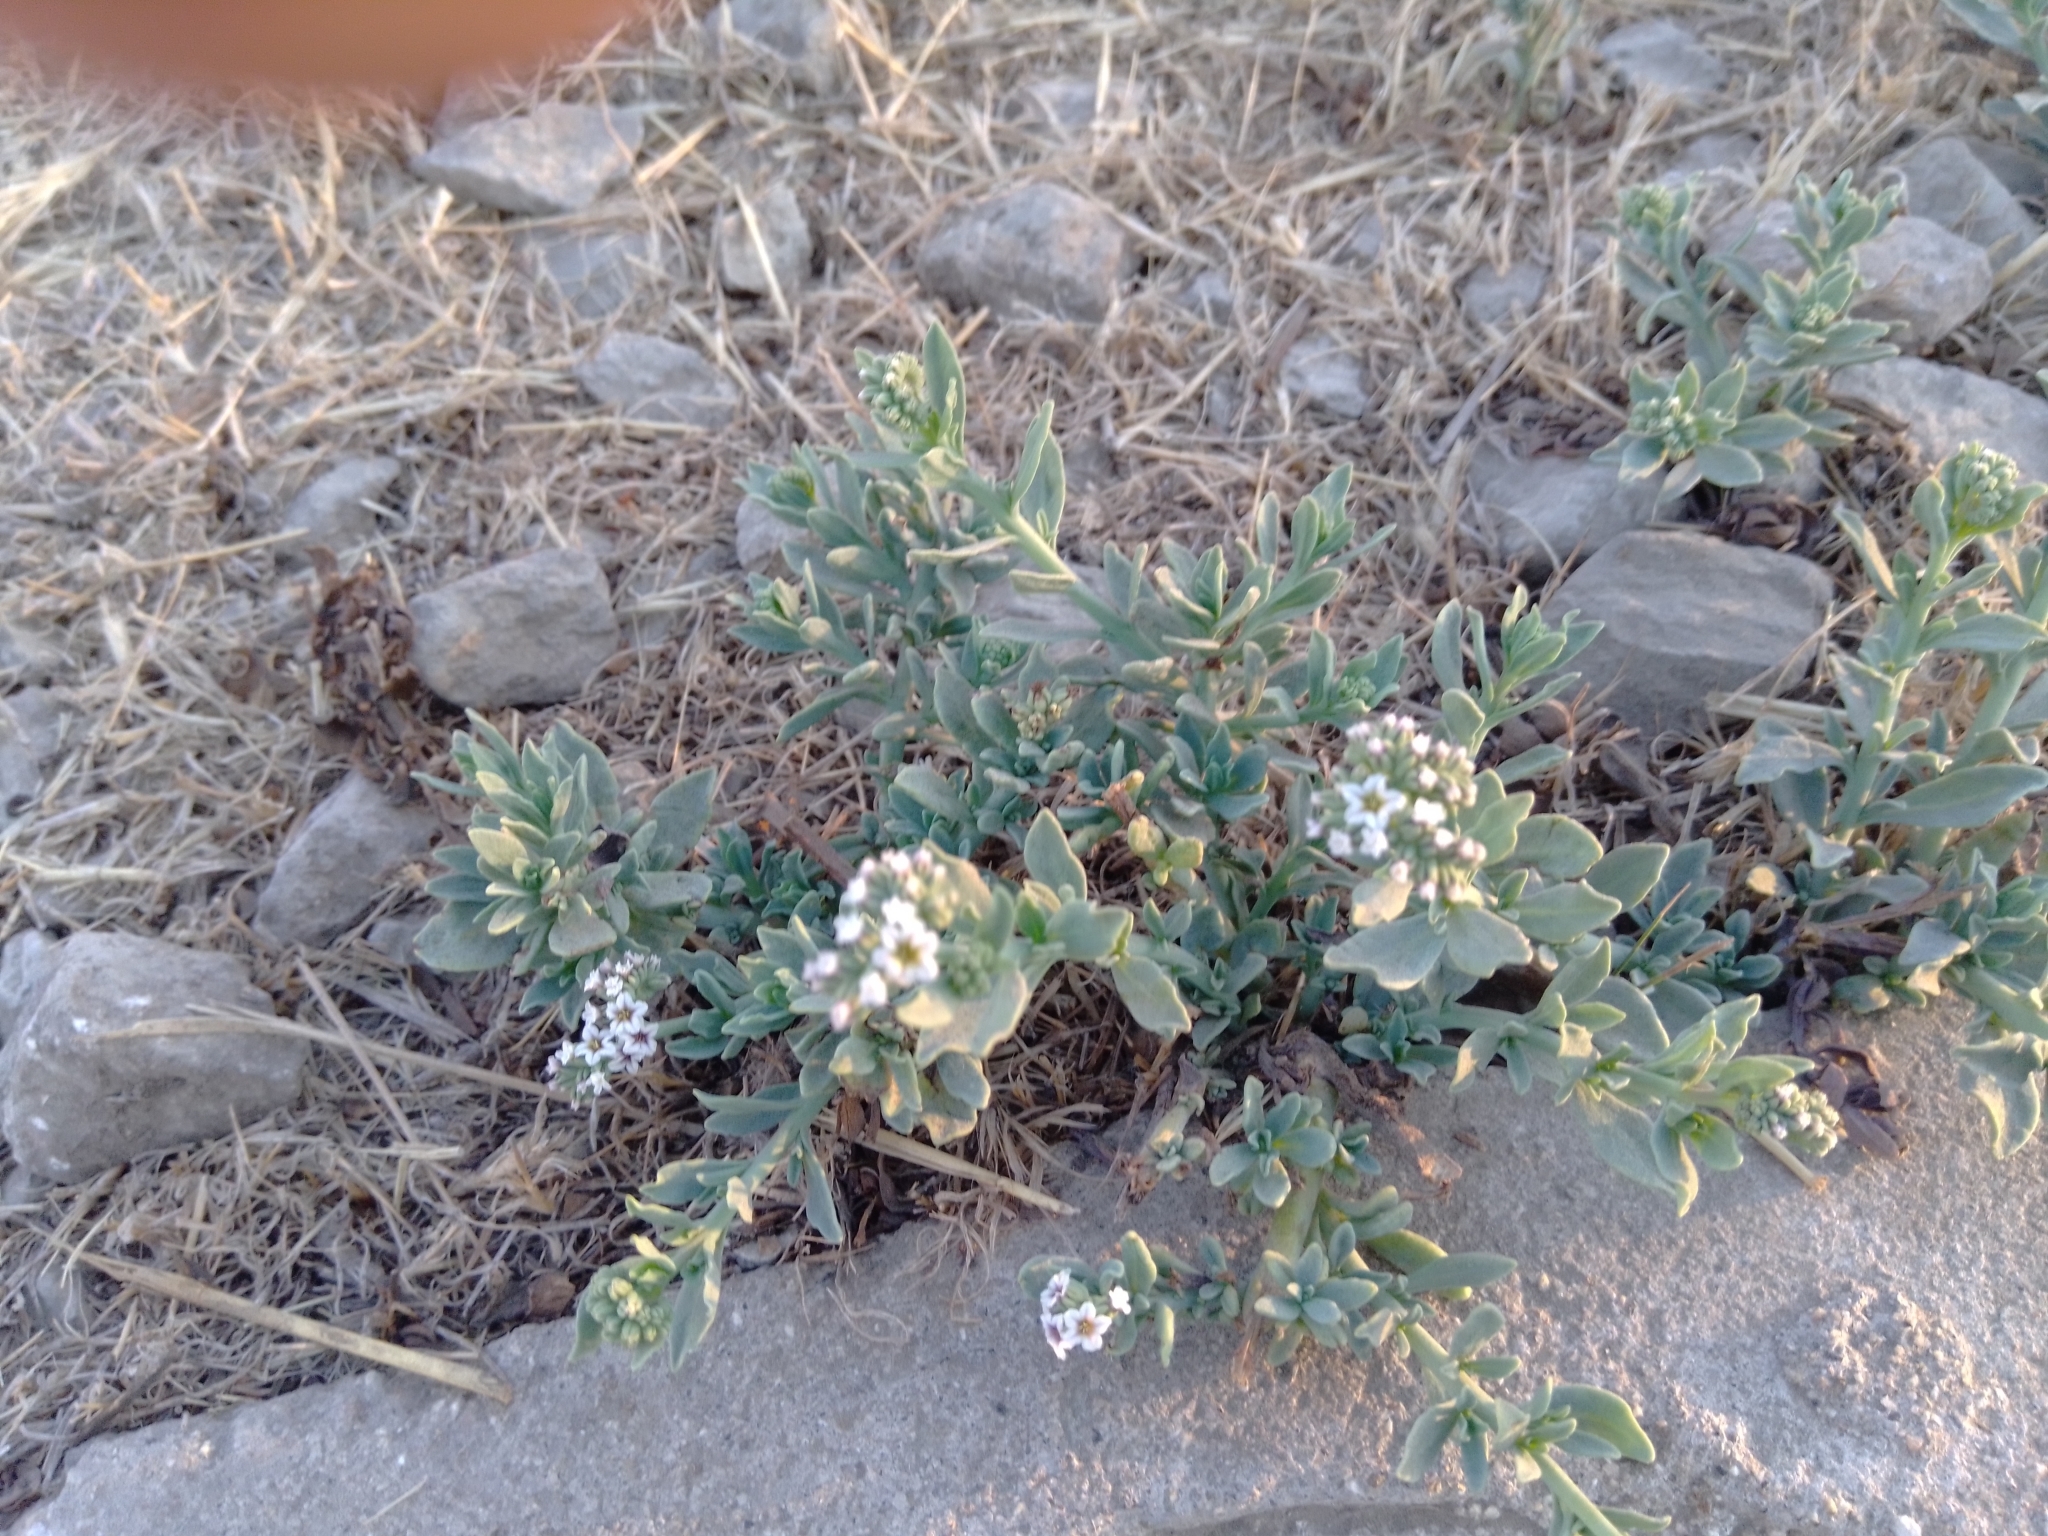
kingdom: Plantae
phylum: Tracheophyta
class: Magnoliopsida
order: Boraginales
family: Heliotropiaceae
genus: Heliotropium
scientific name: Heliotropium curassavicum
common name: Seaside heliotrope
